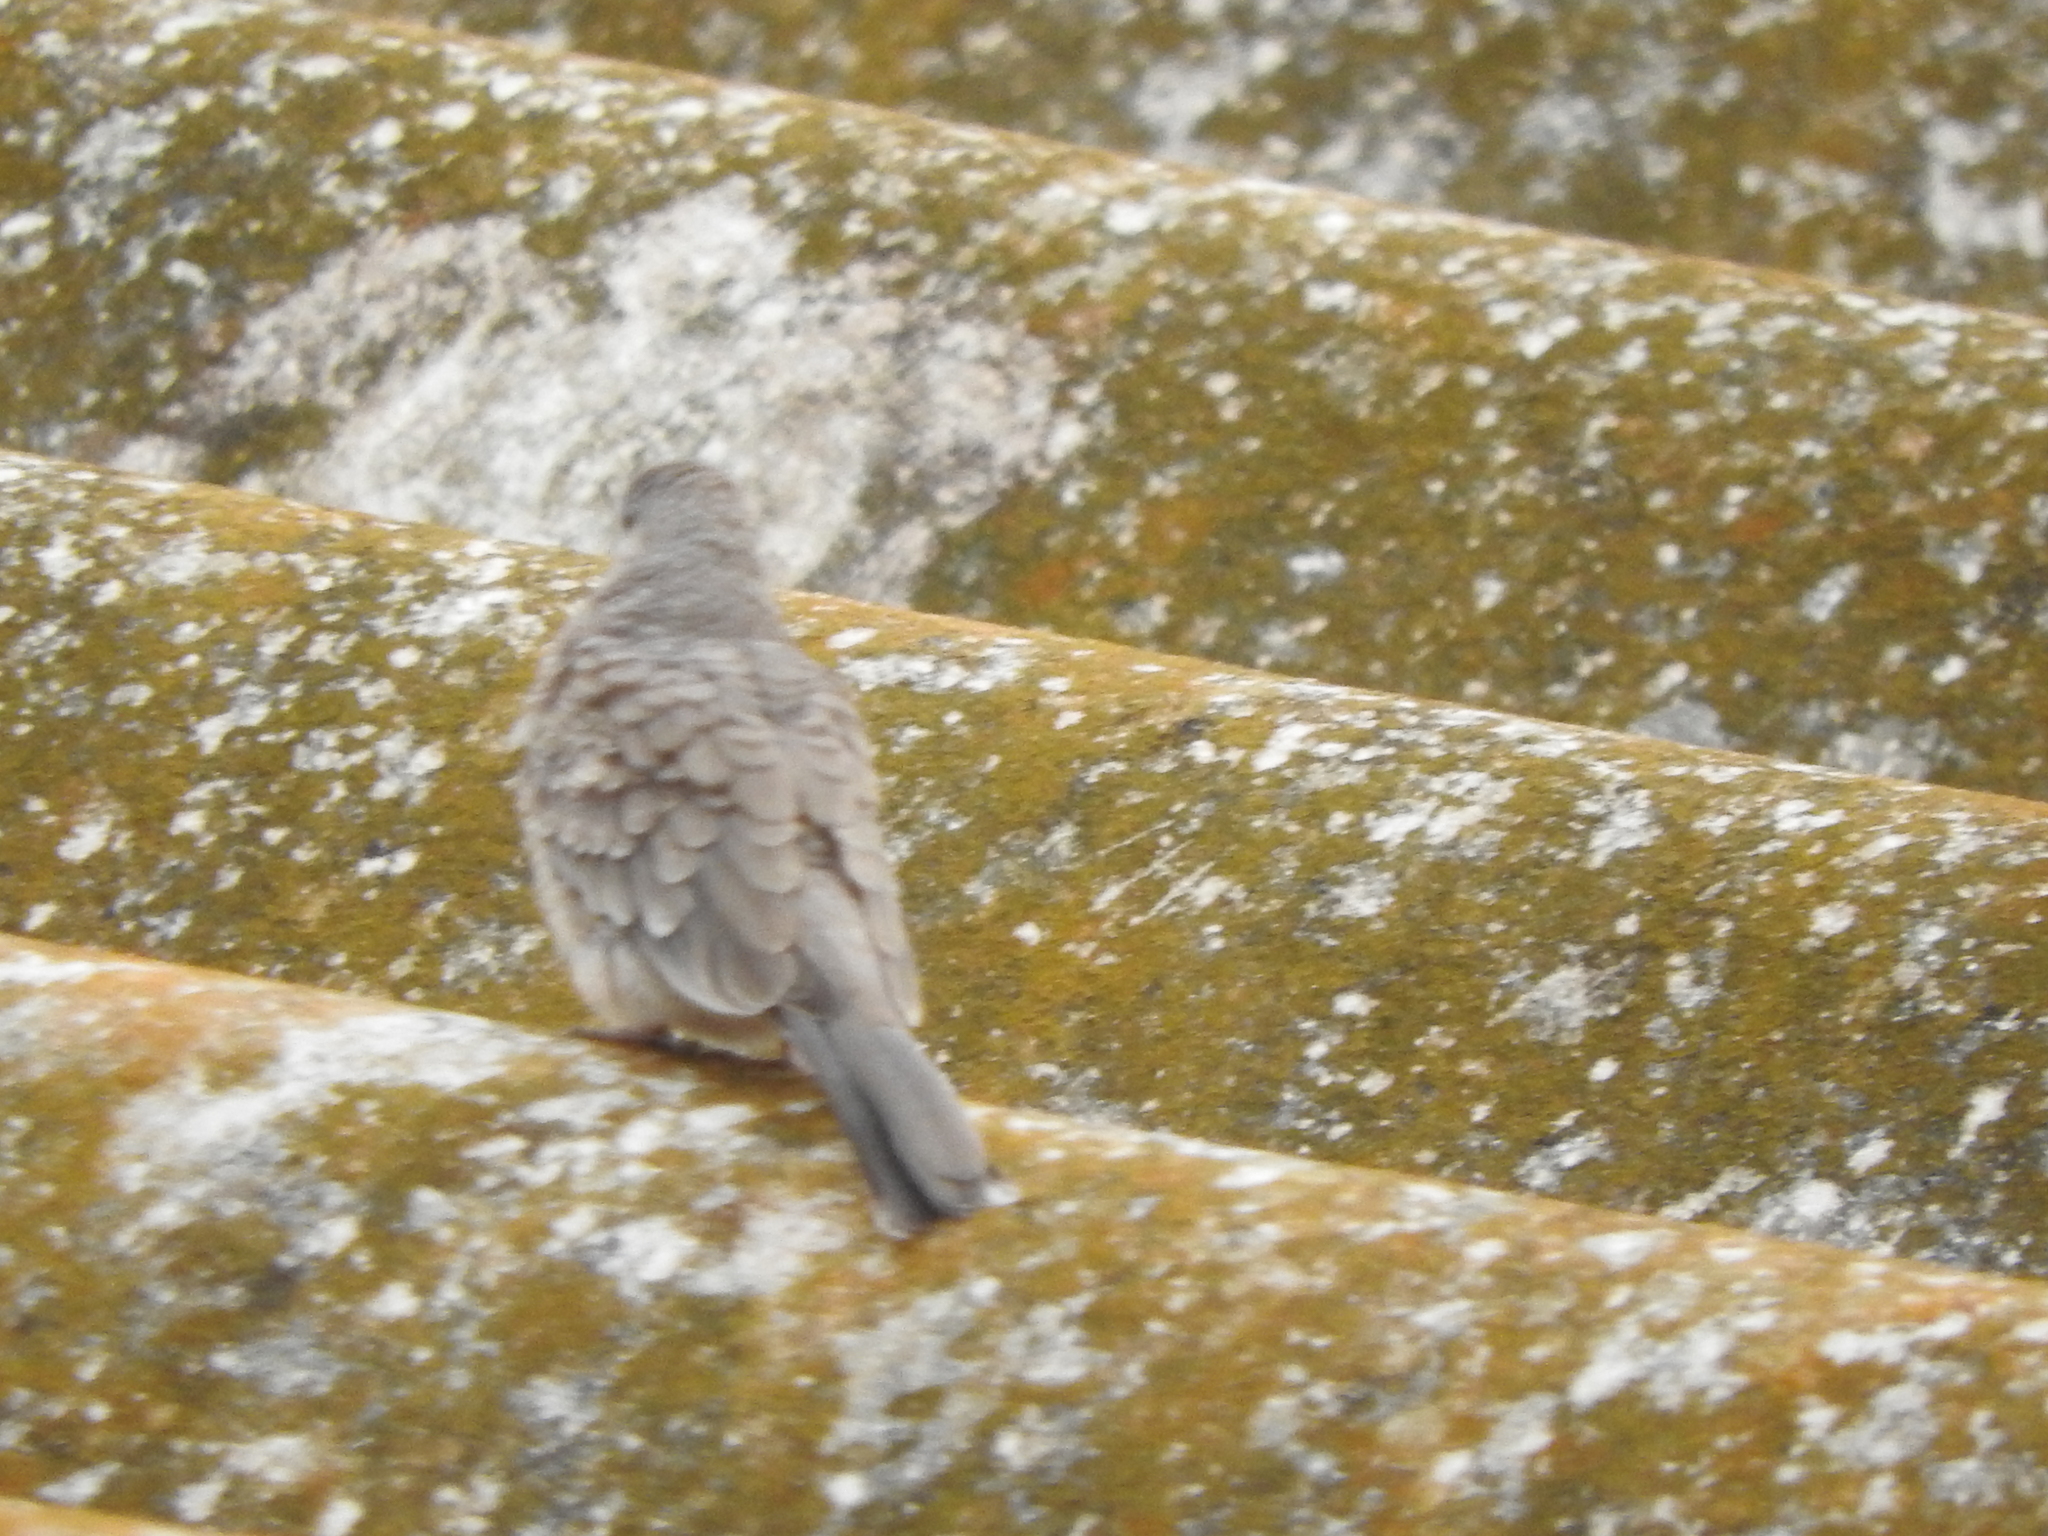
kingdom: Animalia
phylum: Chordata
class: Aves
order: Columbiformes
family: Columbidae
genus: Columbina
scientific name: Columbina inca
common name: Inca dove
